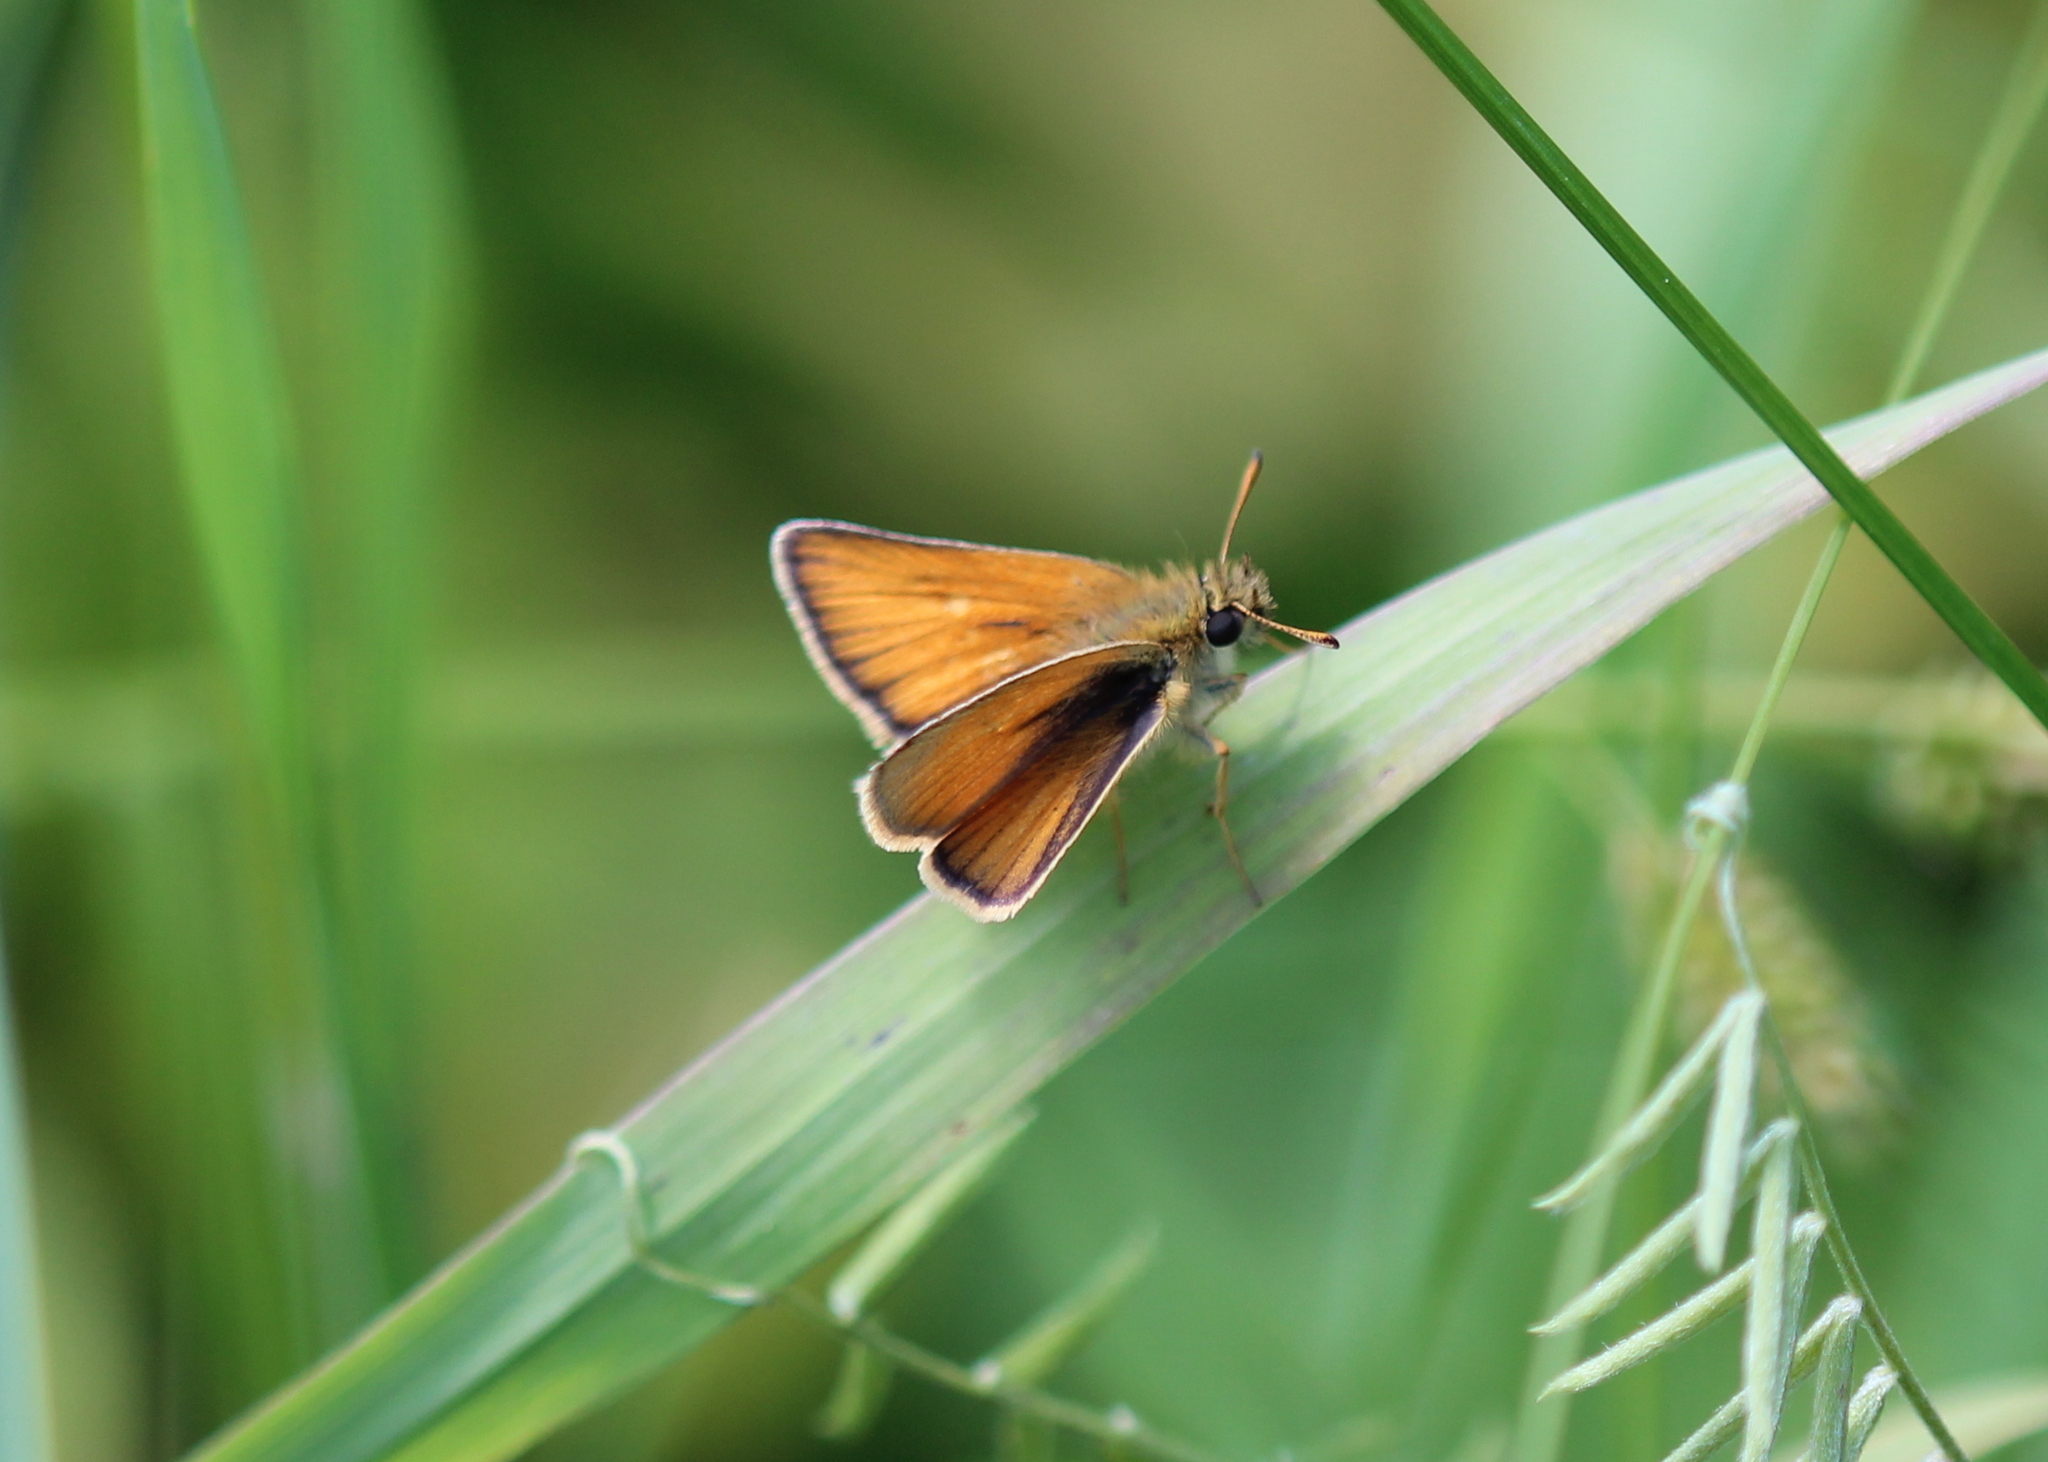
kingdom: Animalia
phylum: Arthropoda
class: Insecta
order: Lepidoptera
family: Hesperiidae
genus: Thymelicus
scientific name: Thymelicus lineola
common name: Essex skipper
